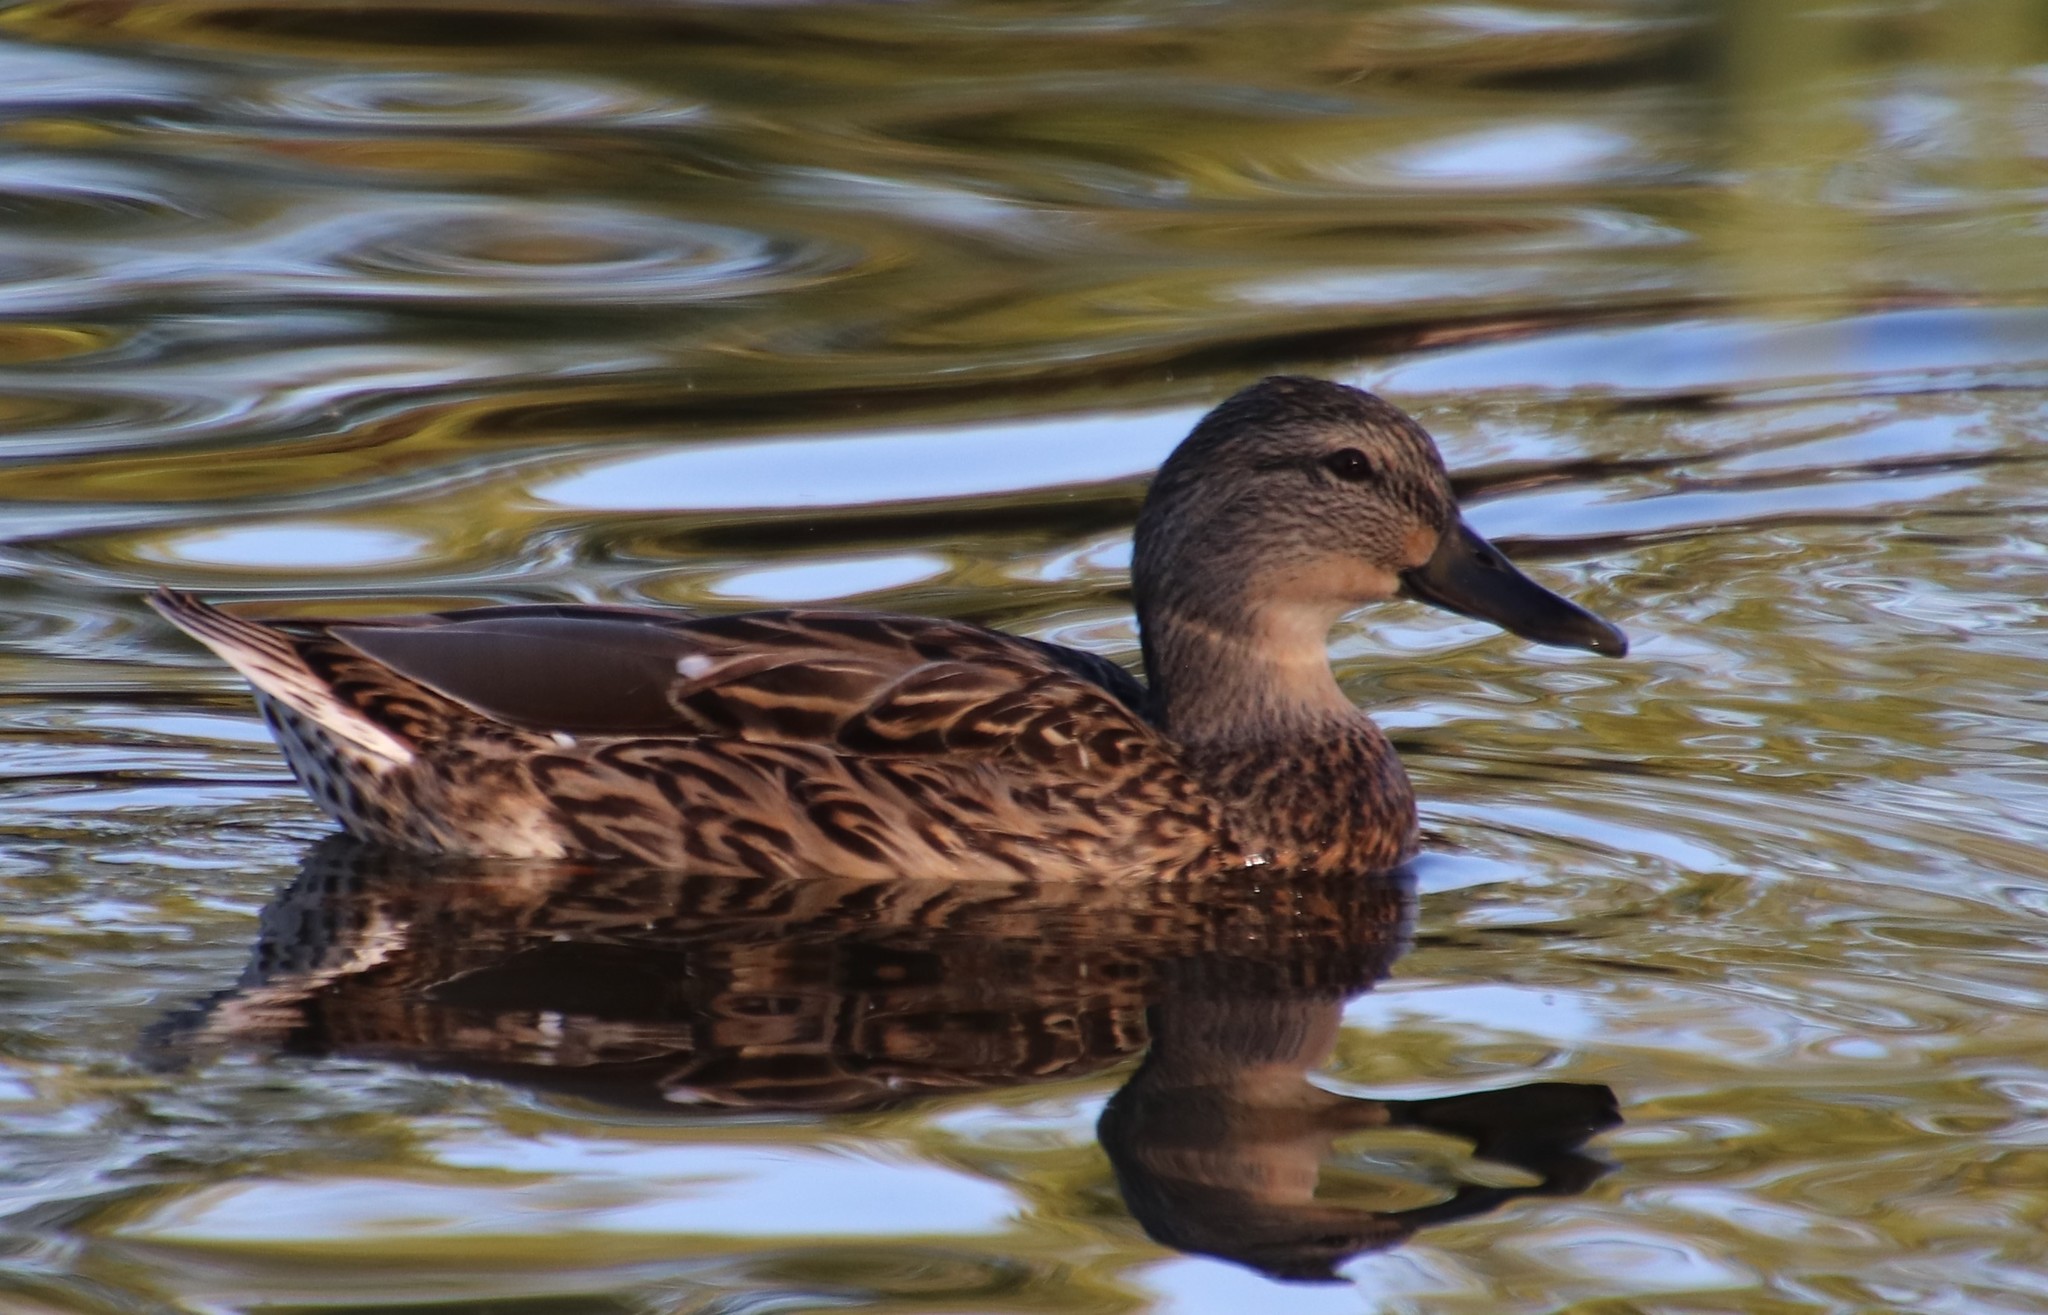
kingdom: Animalia
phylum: Chordata
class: Aves
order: Anseriformes
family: Anatidae
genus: Anas
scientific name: Anas platyrhynchos
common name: Mallard
